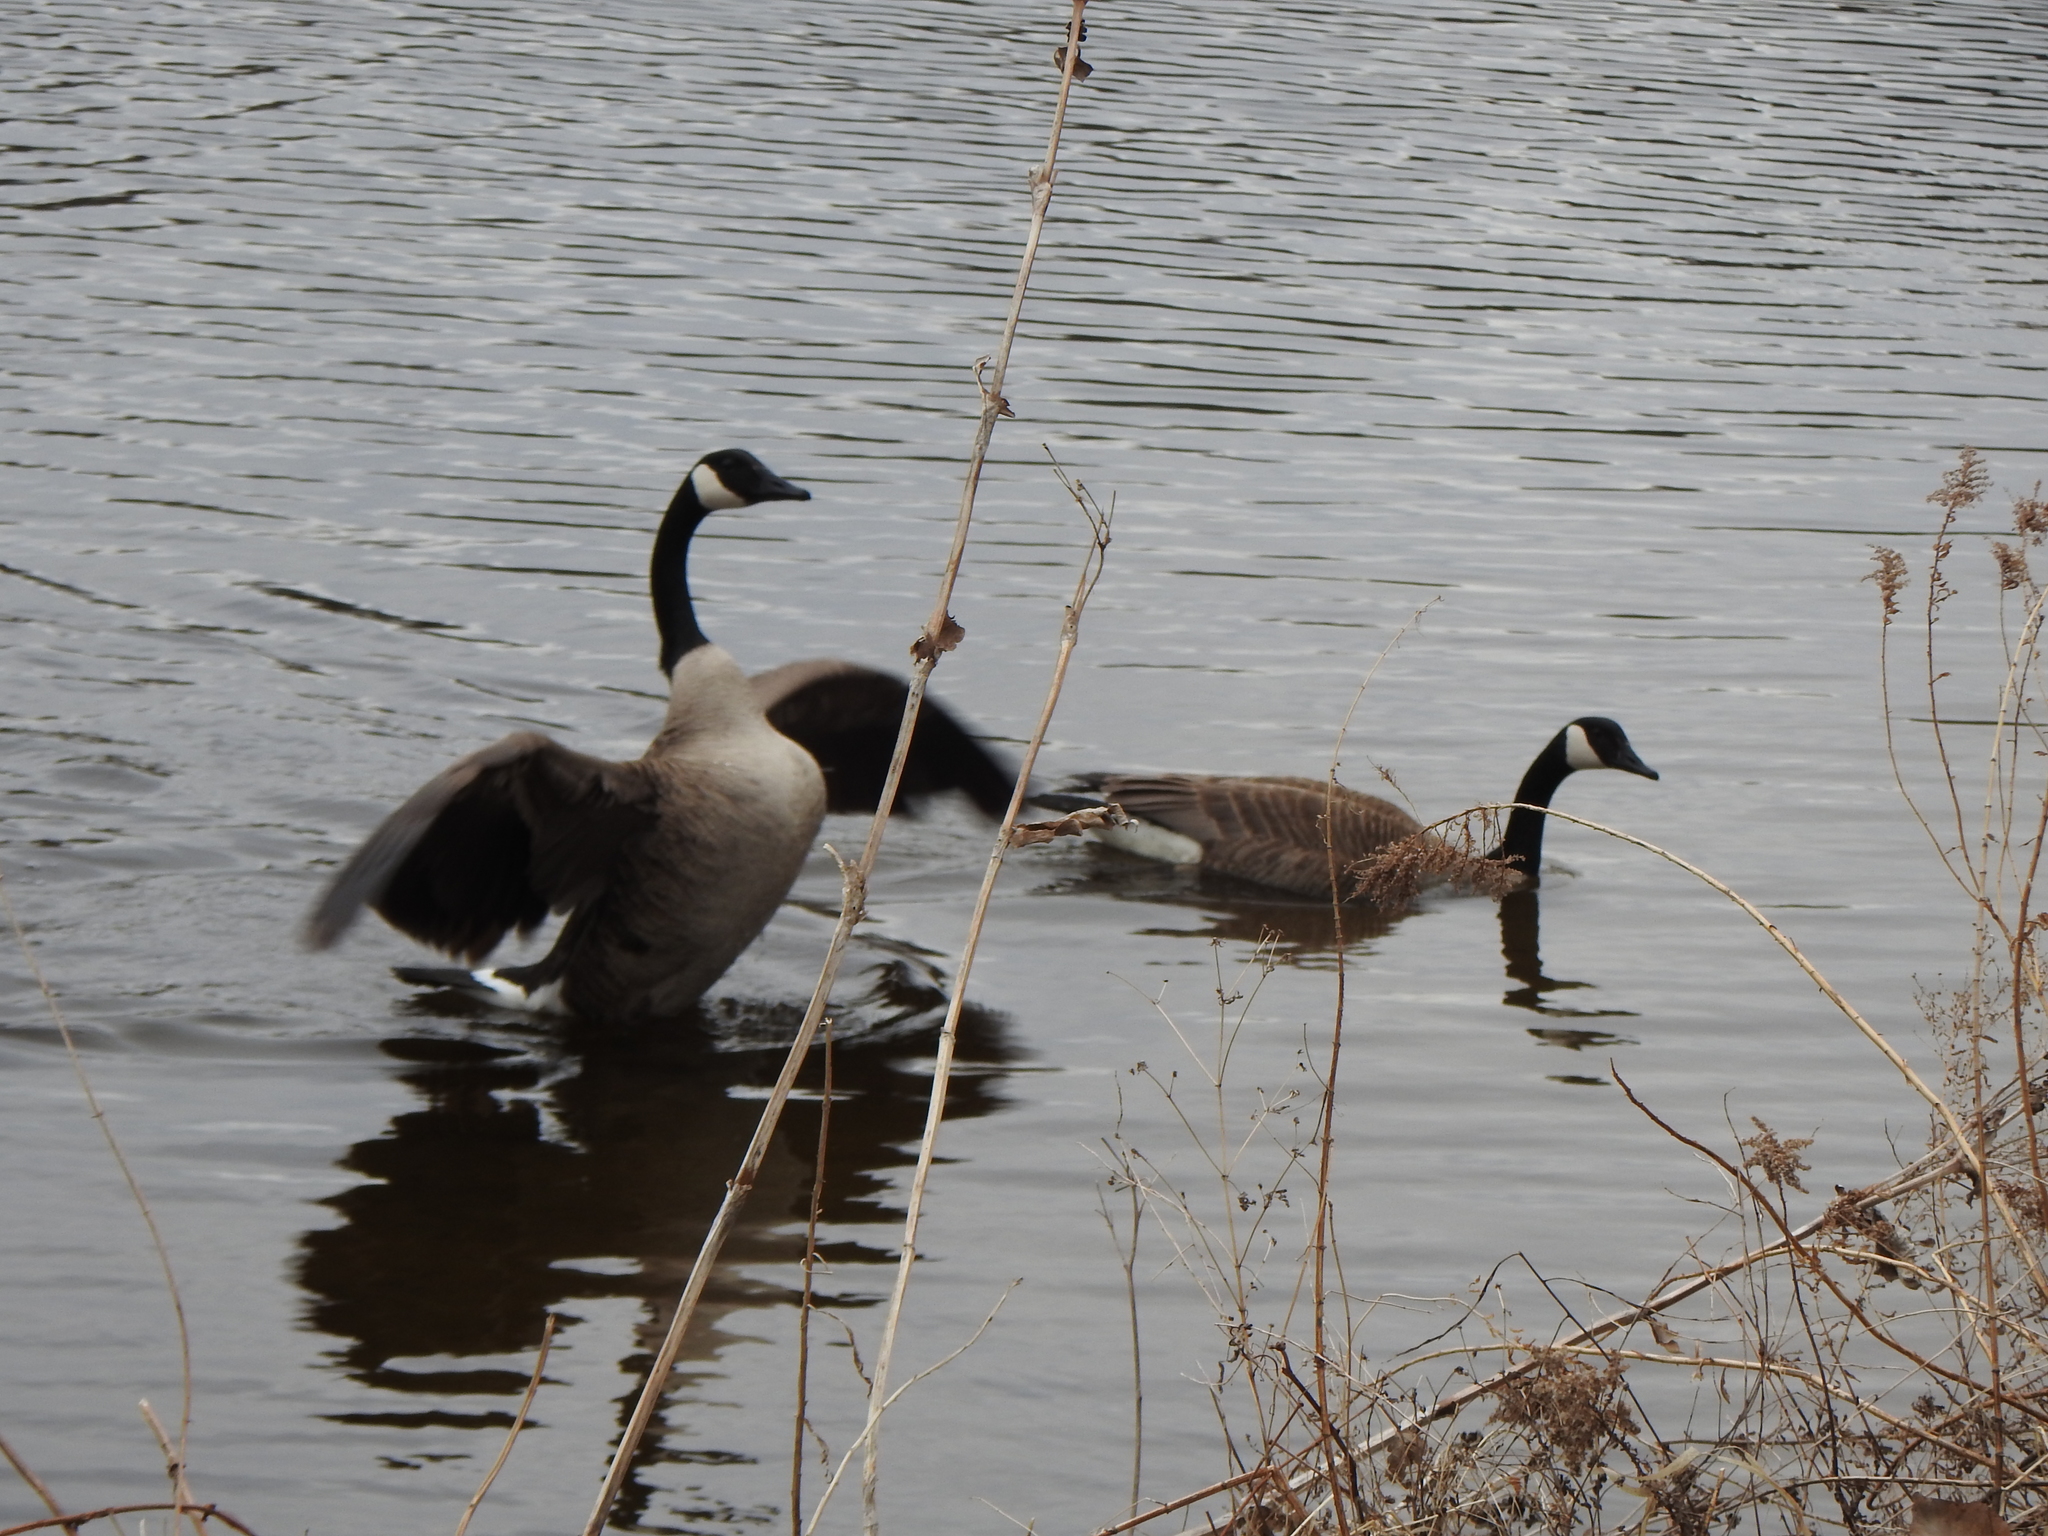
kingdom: Animalia
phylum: Chordata
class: Aves
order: Anseriformes
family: Anatidae
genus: Branta
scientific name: Branta canadensis
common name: Canada goose
